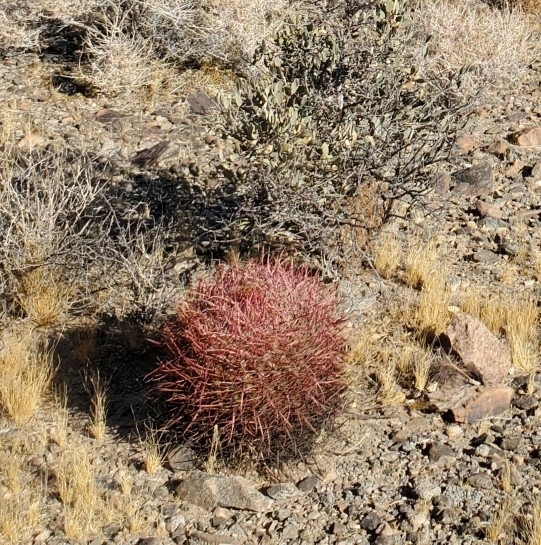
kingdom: Plantae
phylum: Tracheophyta
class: Magnoliopsida
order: Caryophyllales
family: Cactaceae
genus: Ferocactus
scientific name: Ferocactus cylindraceus
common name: California barrel cactus
